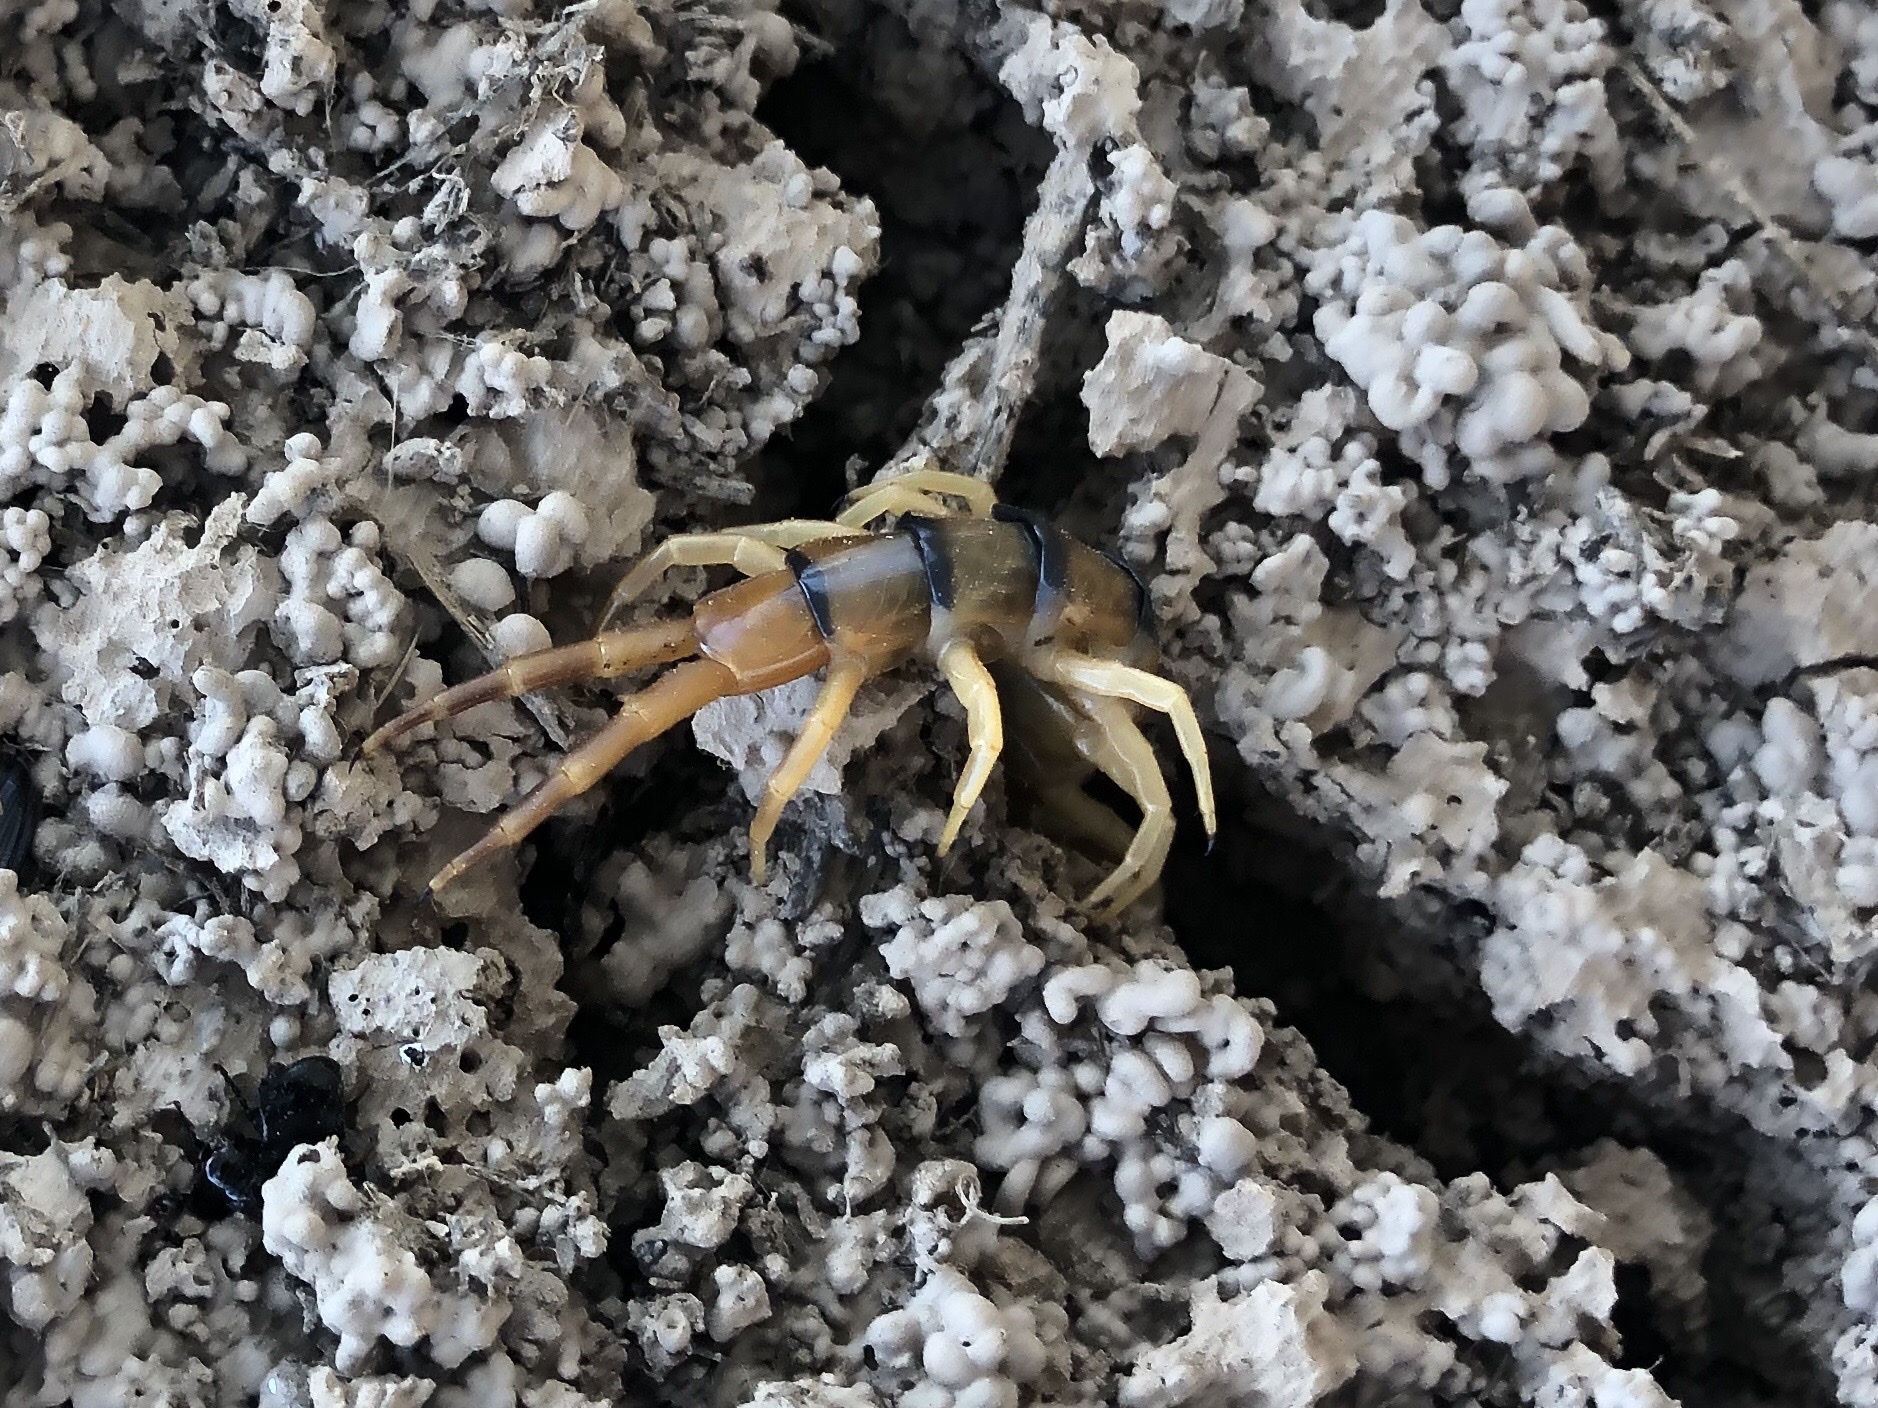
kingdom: Animalia
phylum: Arthropoda
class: Chilopoda
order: Scolopendromorpha
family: Scolopendridae
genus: Scolopendra
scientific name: Scolopendra polymorpha
